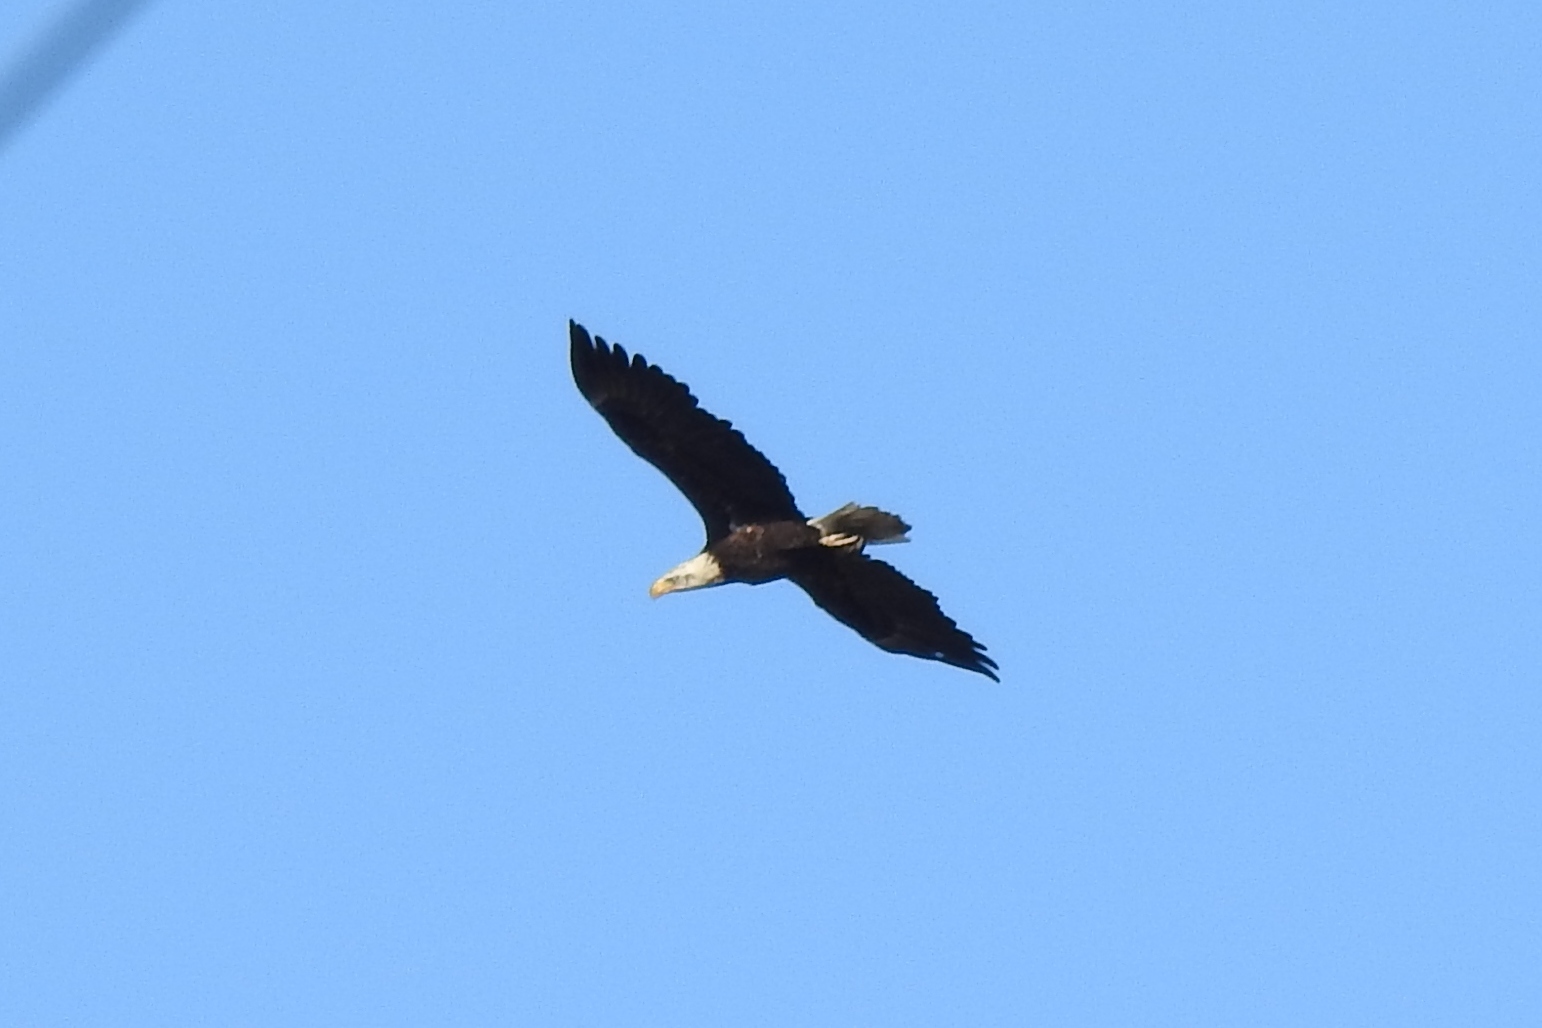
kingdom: Animalia
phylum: Chordata
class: Aves
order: Accipitriformes
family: Accipitridae
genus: Haliaeetus
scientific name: Haliaeetus leucocephalus
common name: Bald eagle
